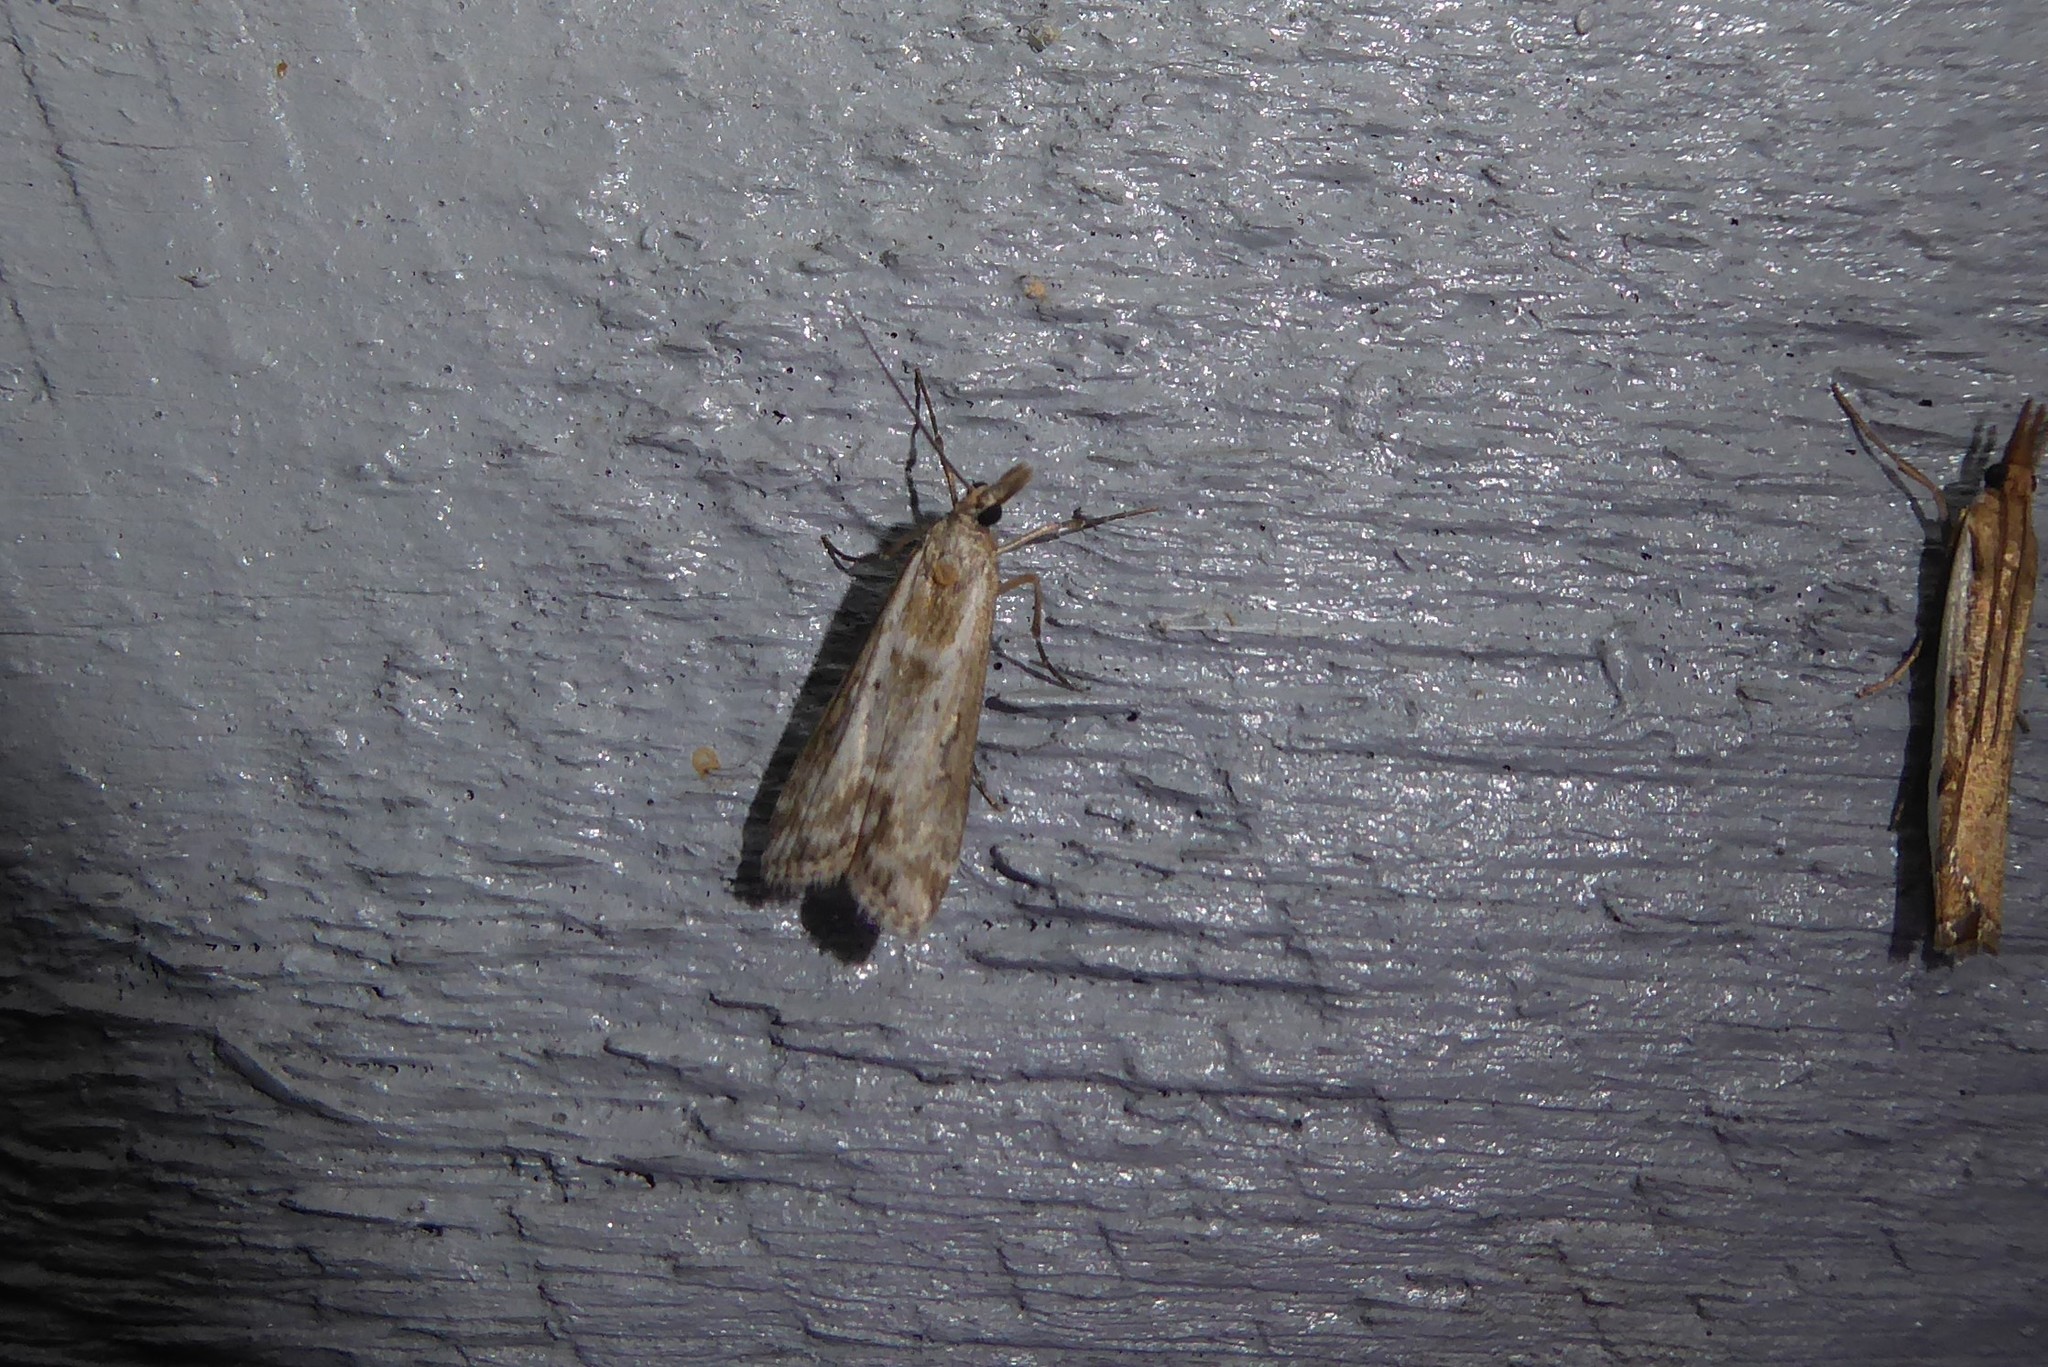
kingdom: Animalia
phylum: Arthropoda
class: Insecta
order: Lepidoptera
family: Crambidae
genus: Eudonia
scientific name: Eudonia leptalea
